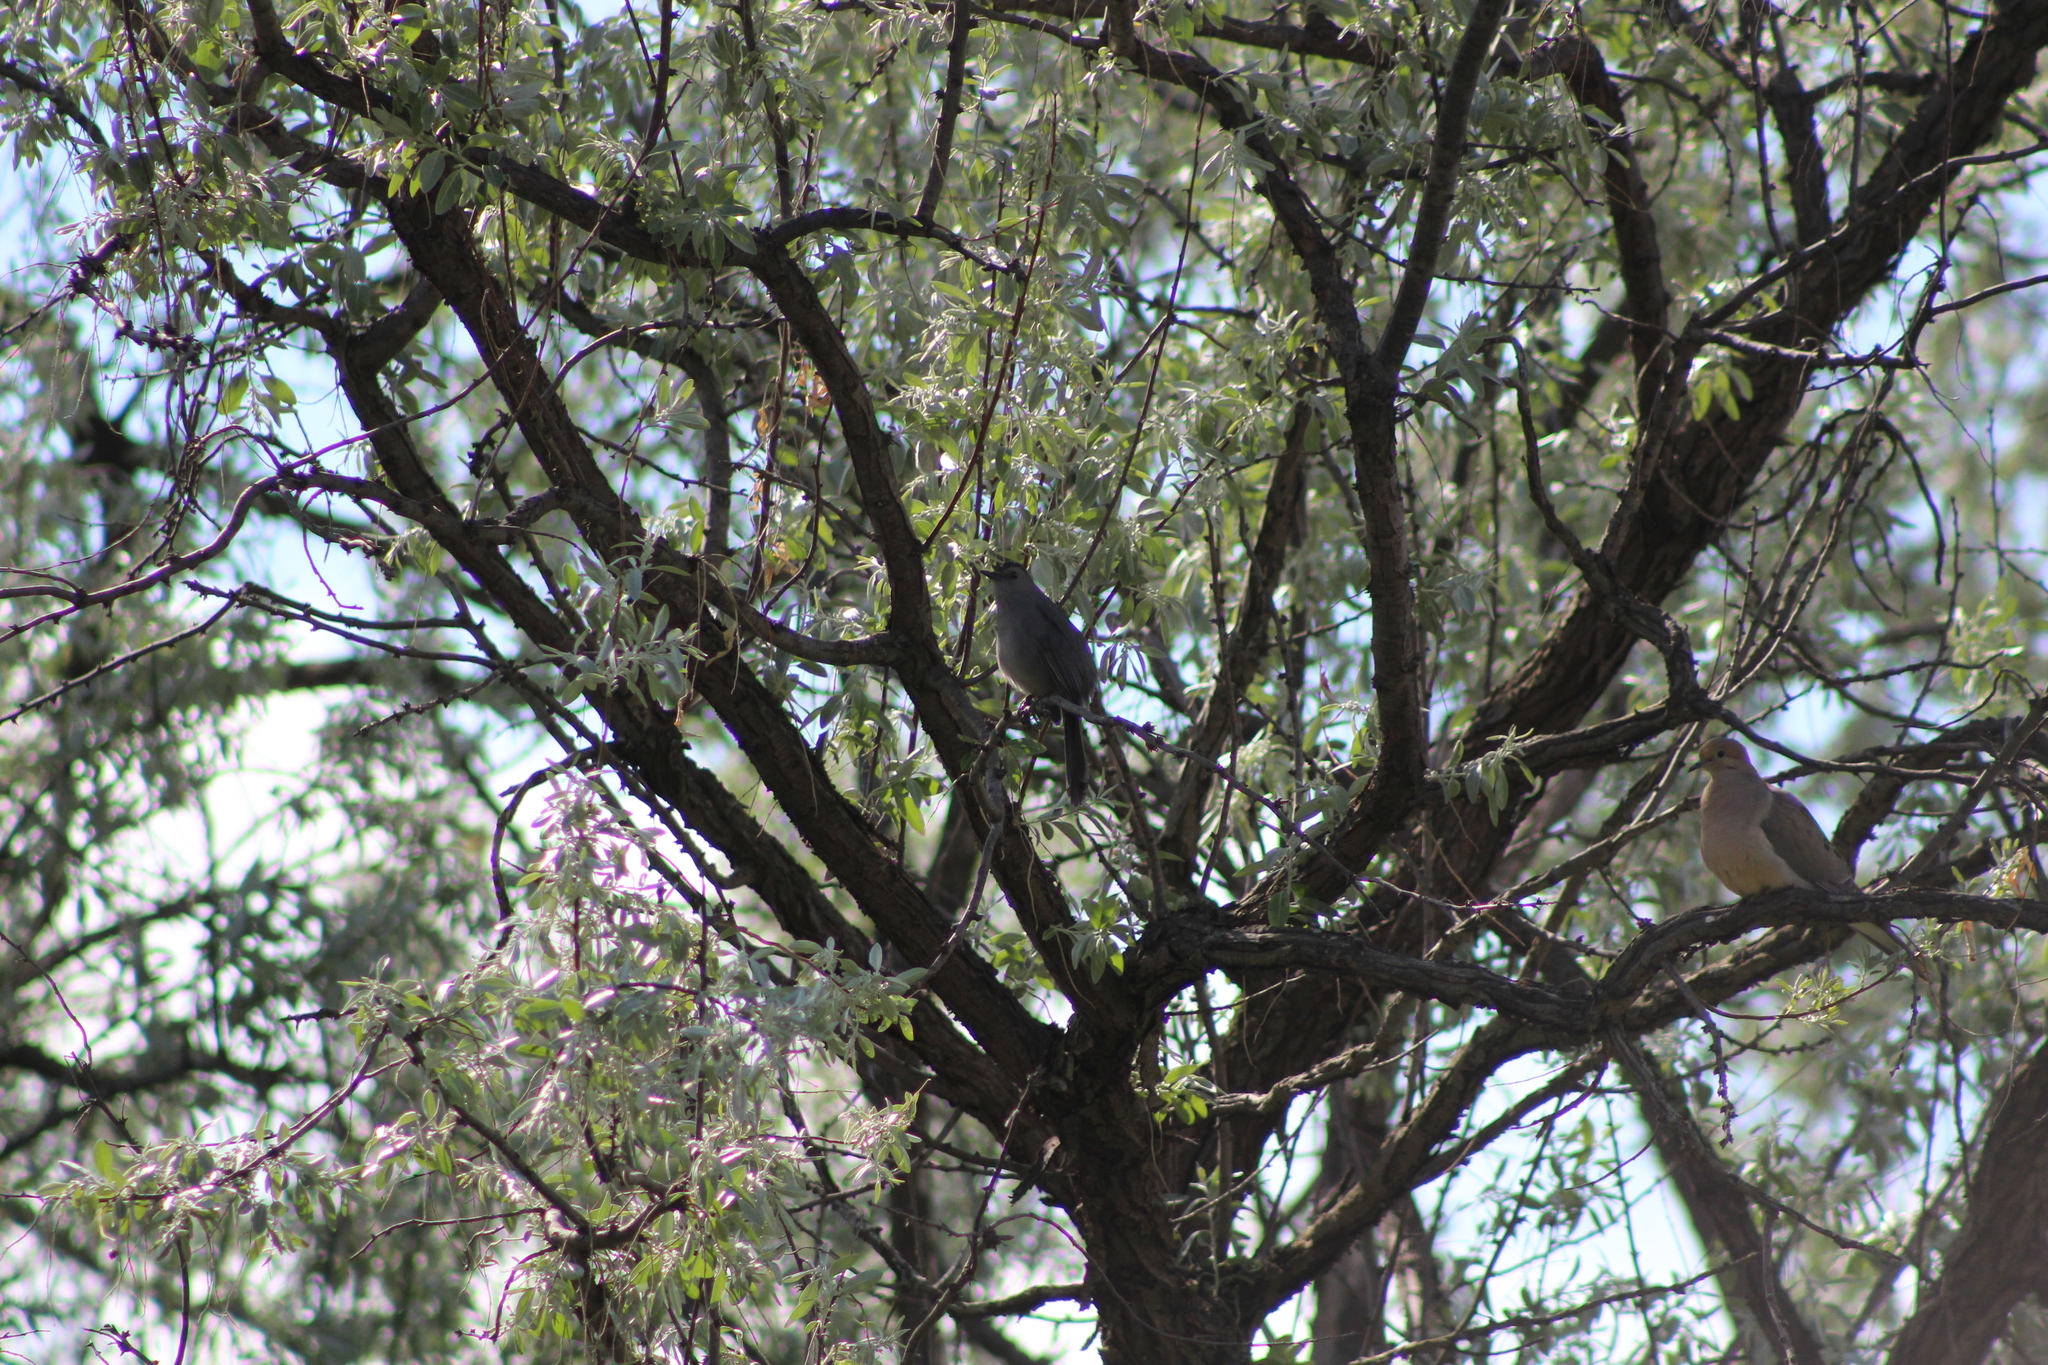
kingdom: Animalia
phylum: Chordata
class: Aves
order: Passeriformes
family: Mimidae
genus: Dumetella
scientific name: Dumetella carolinensis
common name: Gray catbird
